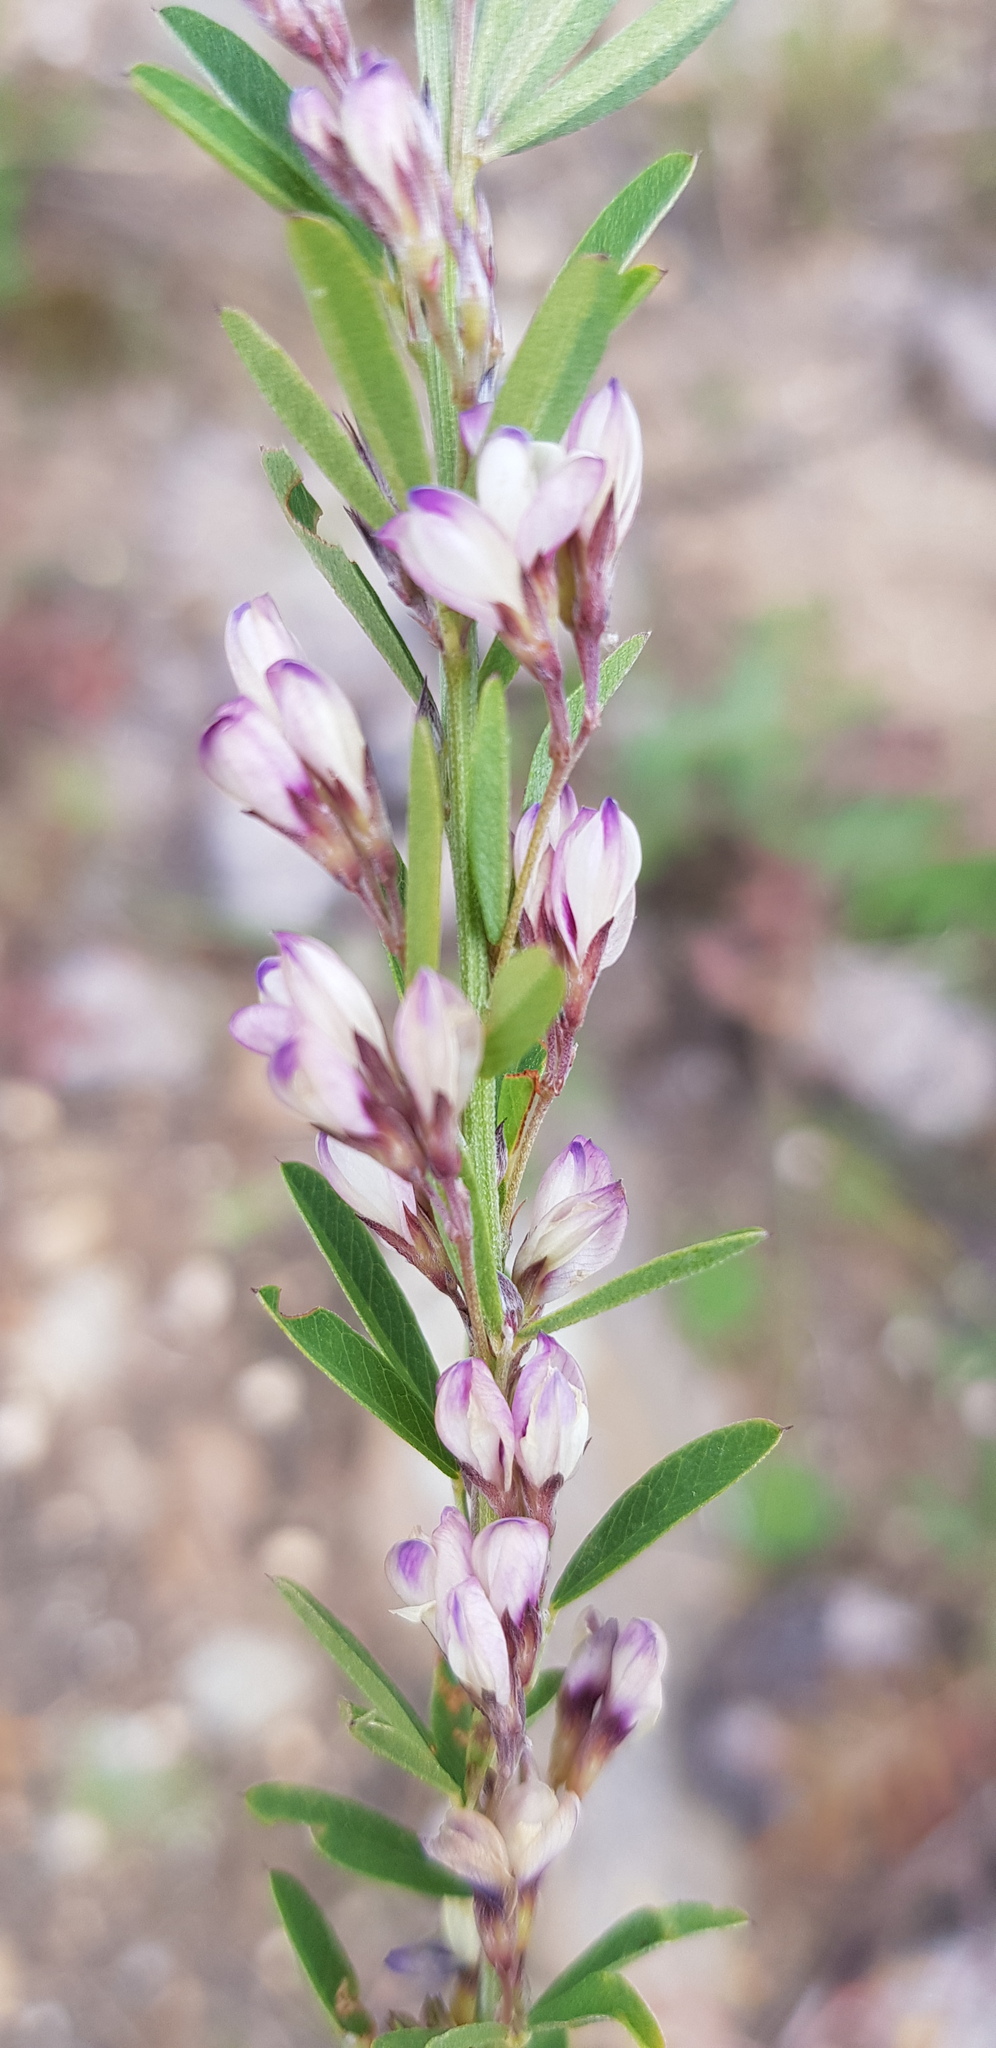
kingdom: Plantae
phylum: Tracheophyta
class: Magnoliopsida
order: Fabales
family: Fabaceae
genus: Lespedeza
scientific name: Lespedeza daurica
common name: Dahurian lespedeza
